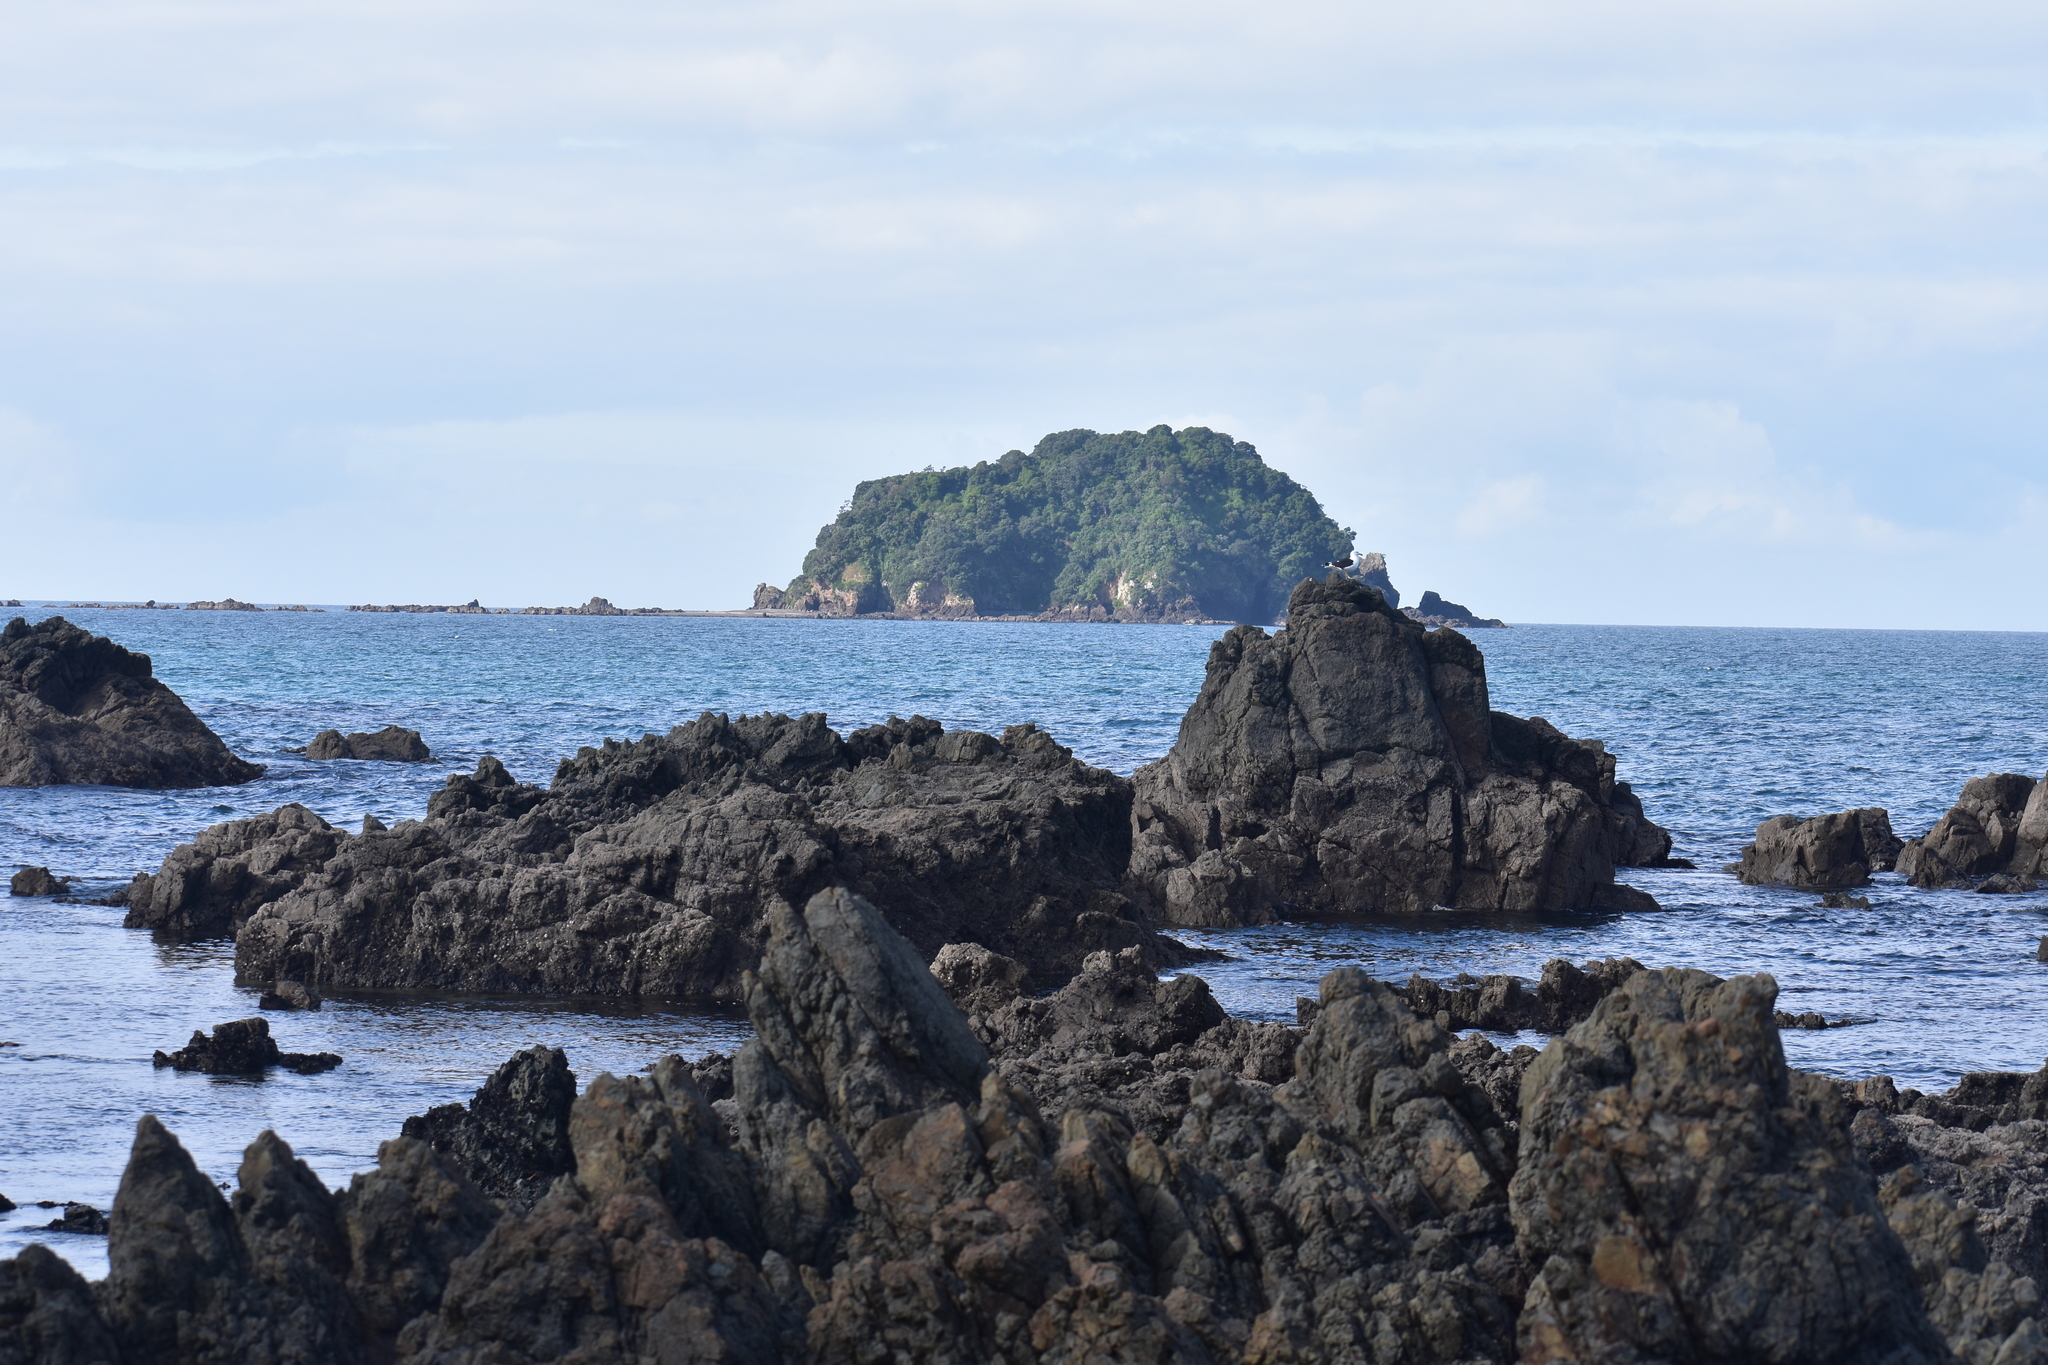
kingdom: Animalia
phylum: Chordata
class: Aves
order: Charadriiformes
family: Laridae
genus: Larus
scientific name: Larus dominicanus
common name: Kelp gull
